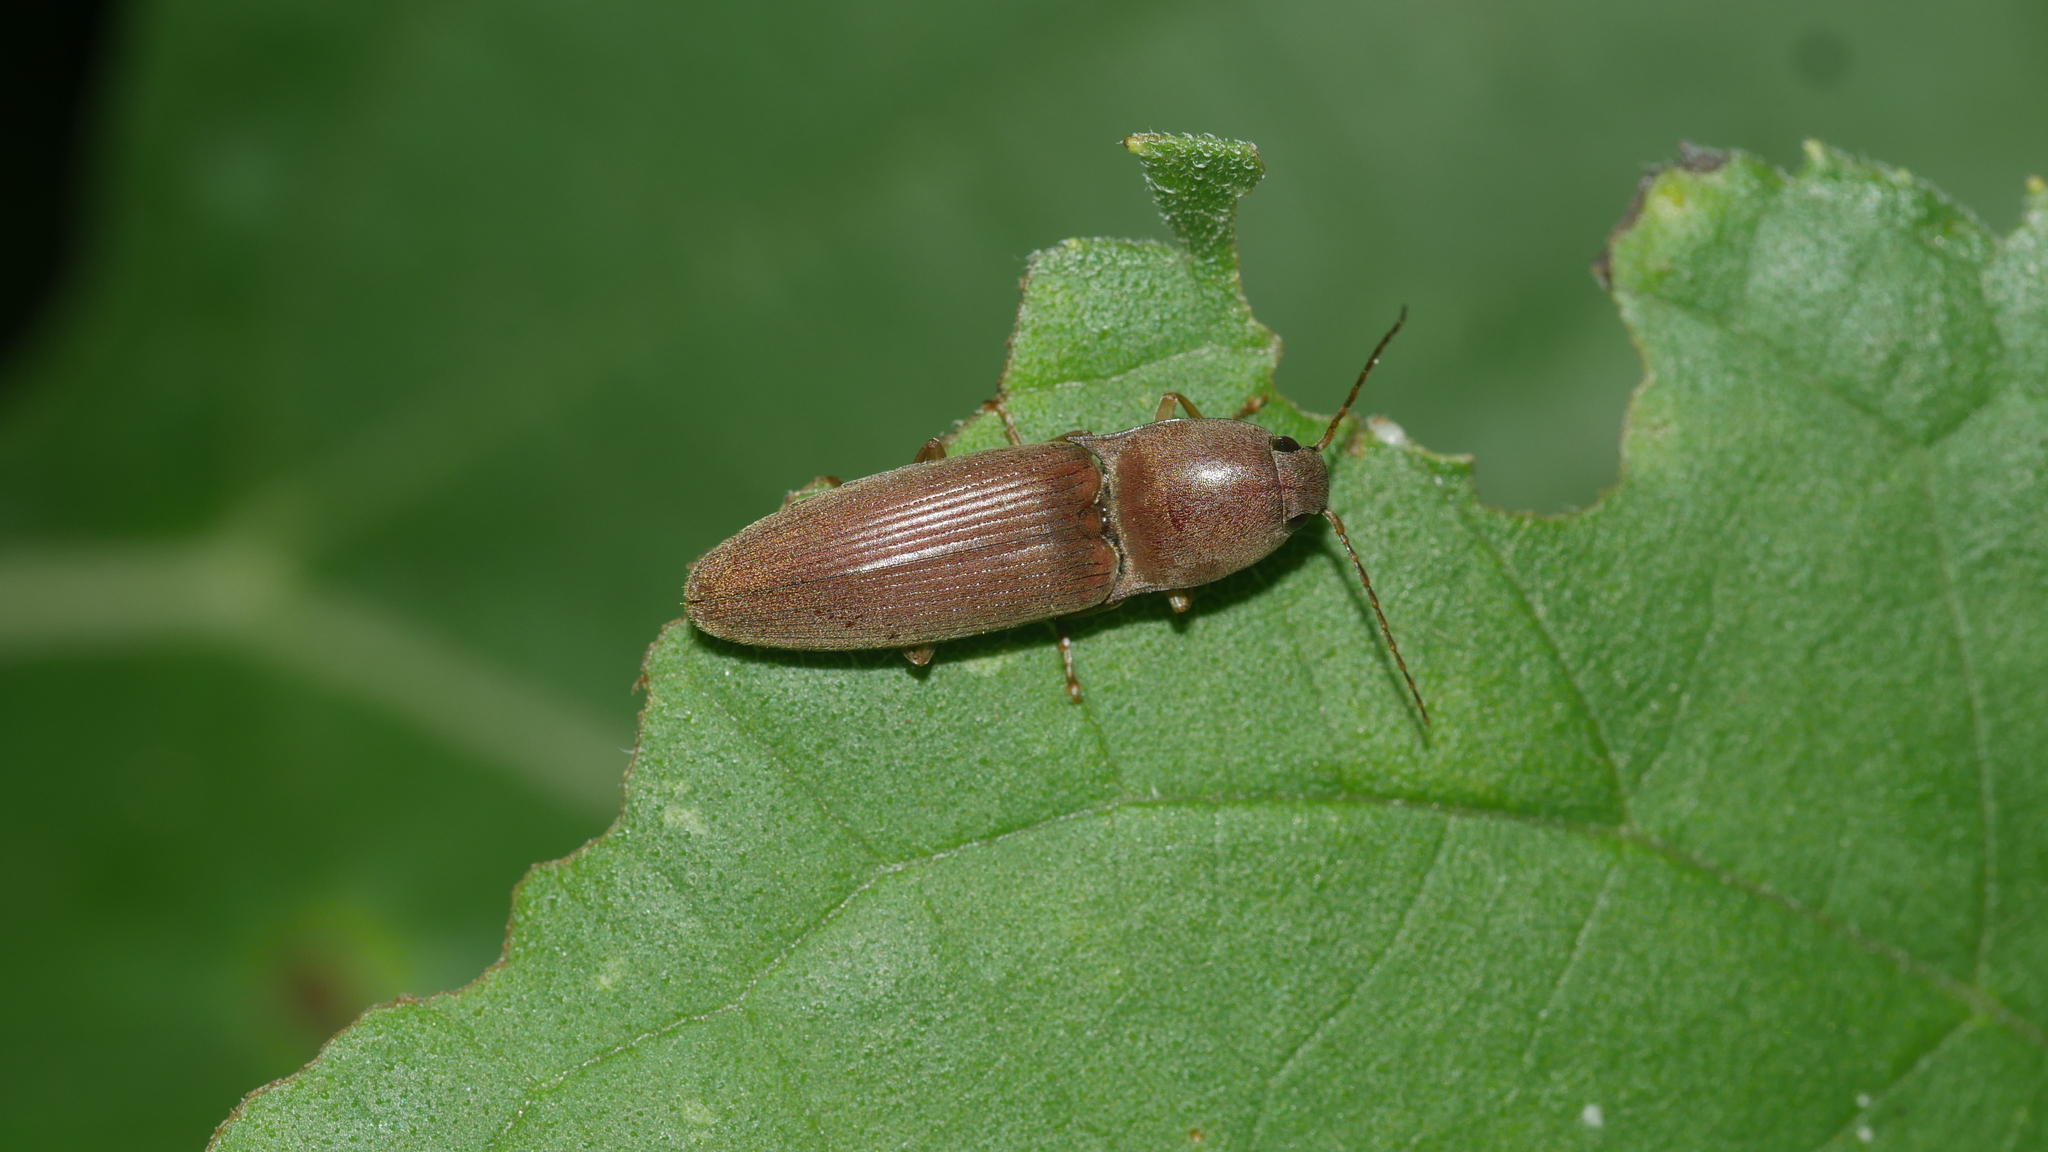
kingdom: Animalia
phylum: Arthropoda
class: Insecta
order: Coleoptera
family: Elateridae
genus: Monocrepidius
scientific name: Monocrepidius lividus
